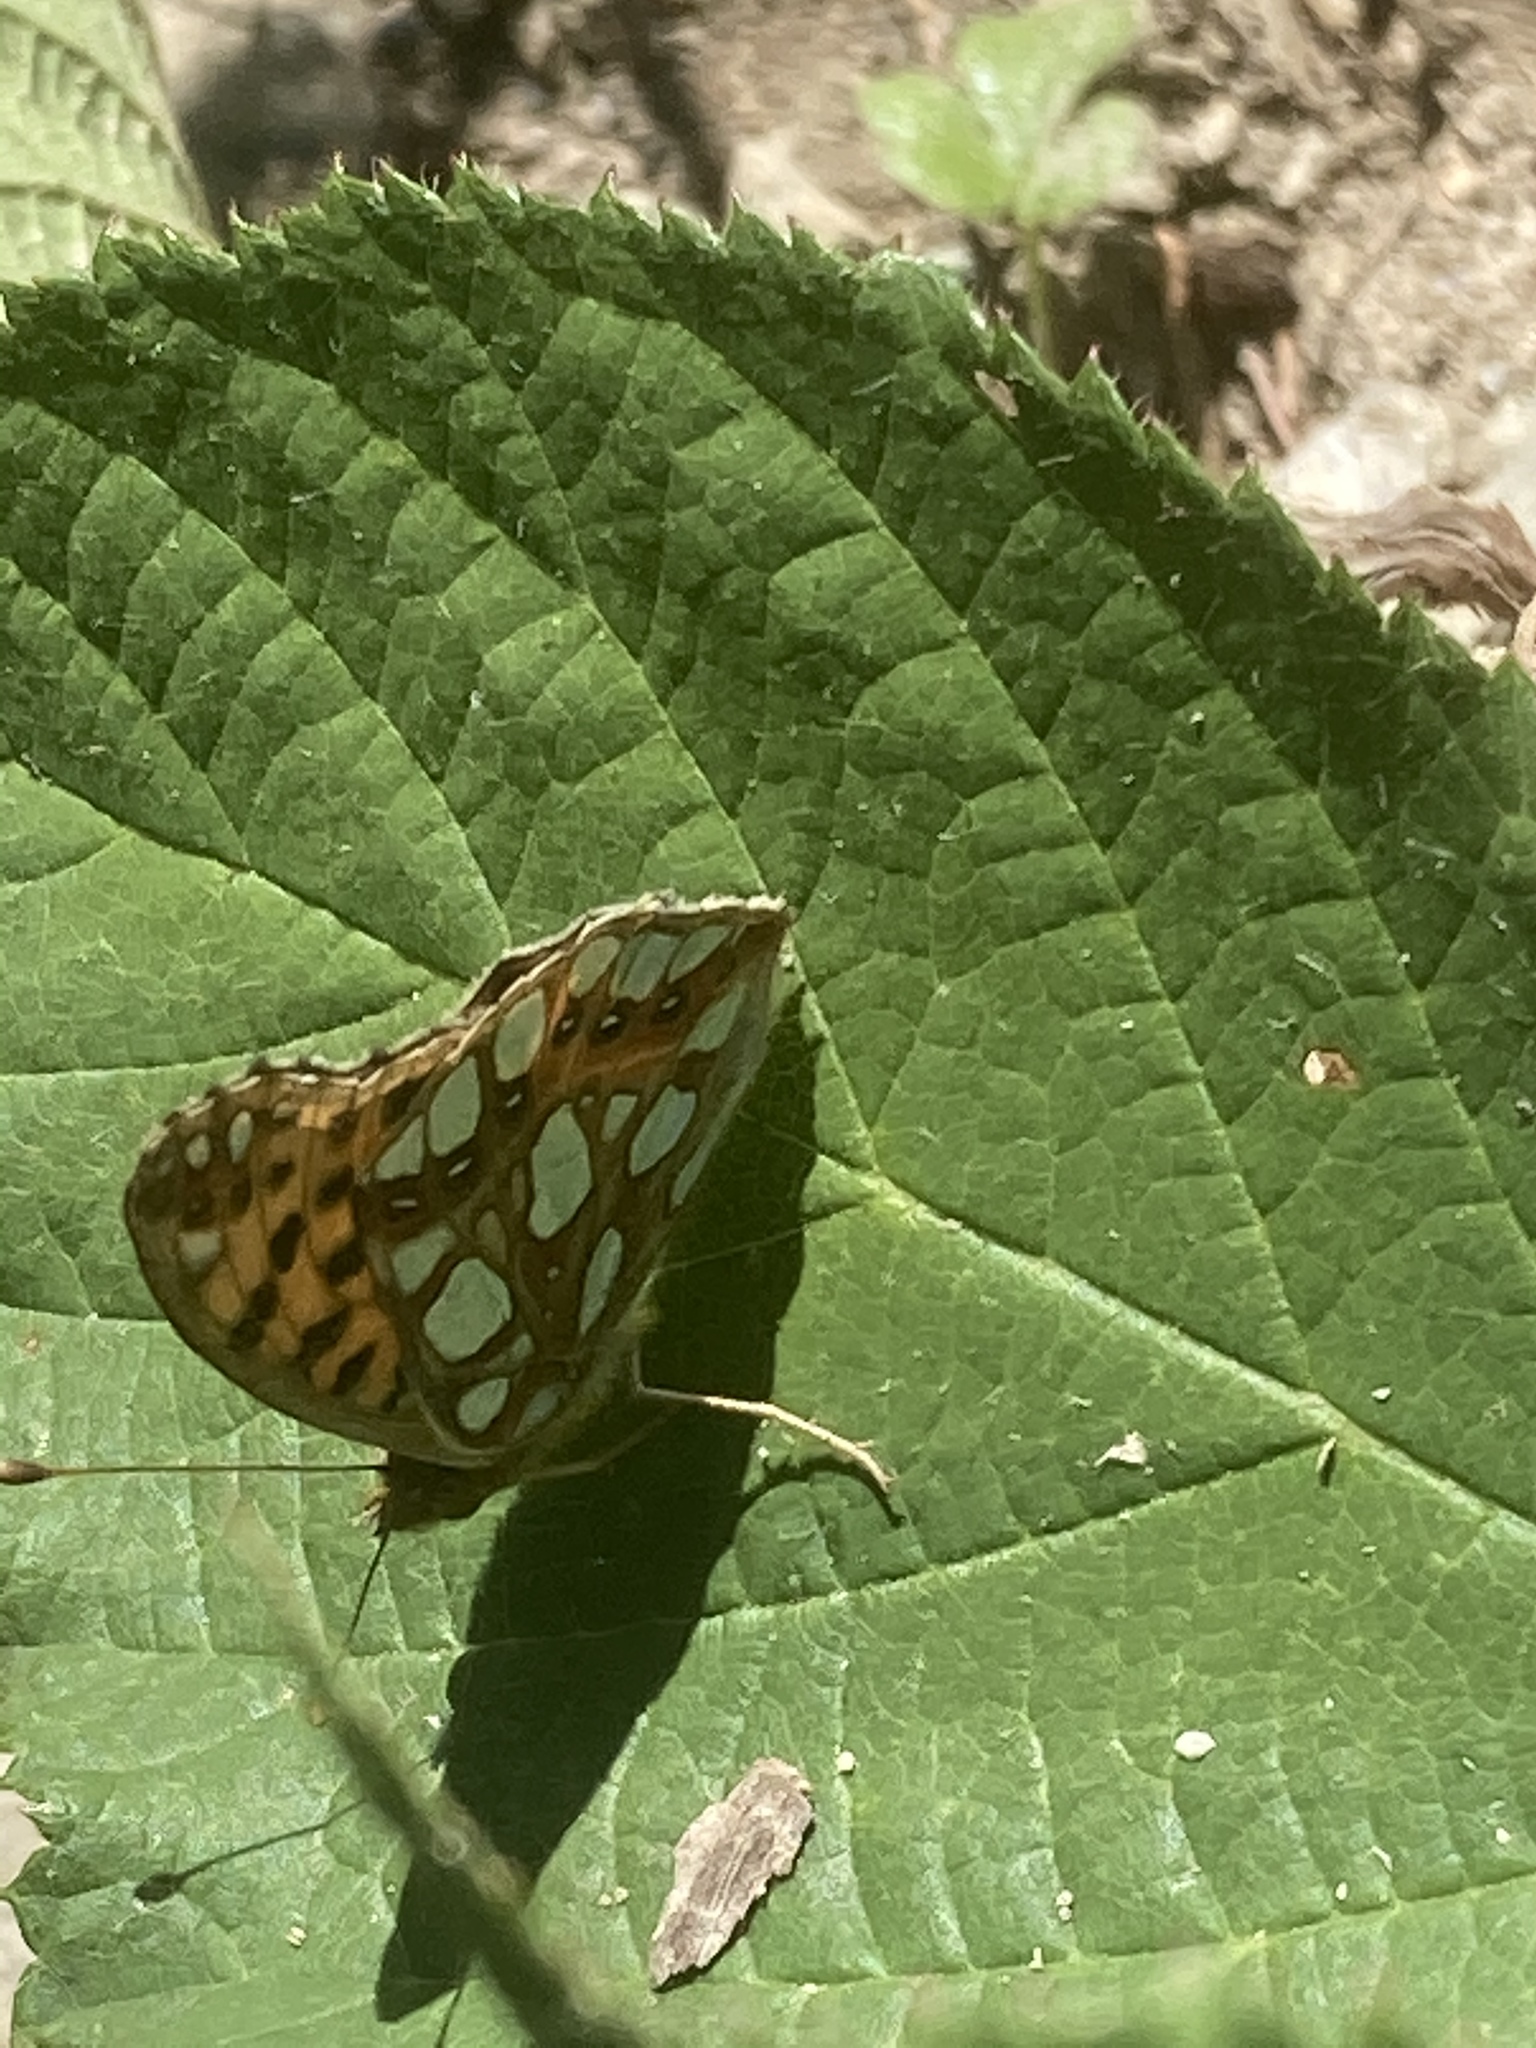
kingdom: Animalia
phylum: Arthropoda
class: Insecta
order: Lepidoptera
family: Nymphalidae
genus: Issoria
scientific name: Issoria lathonia
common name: Queen of spain fritillary
